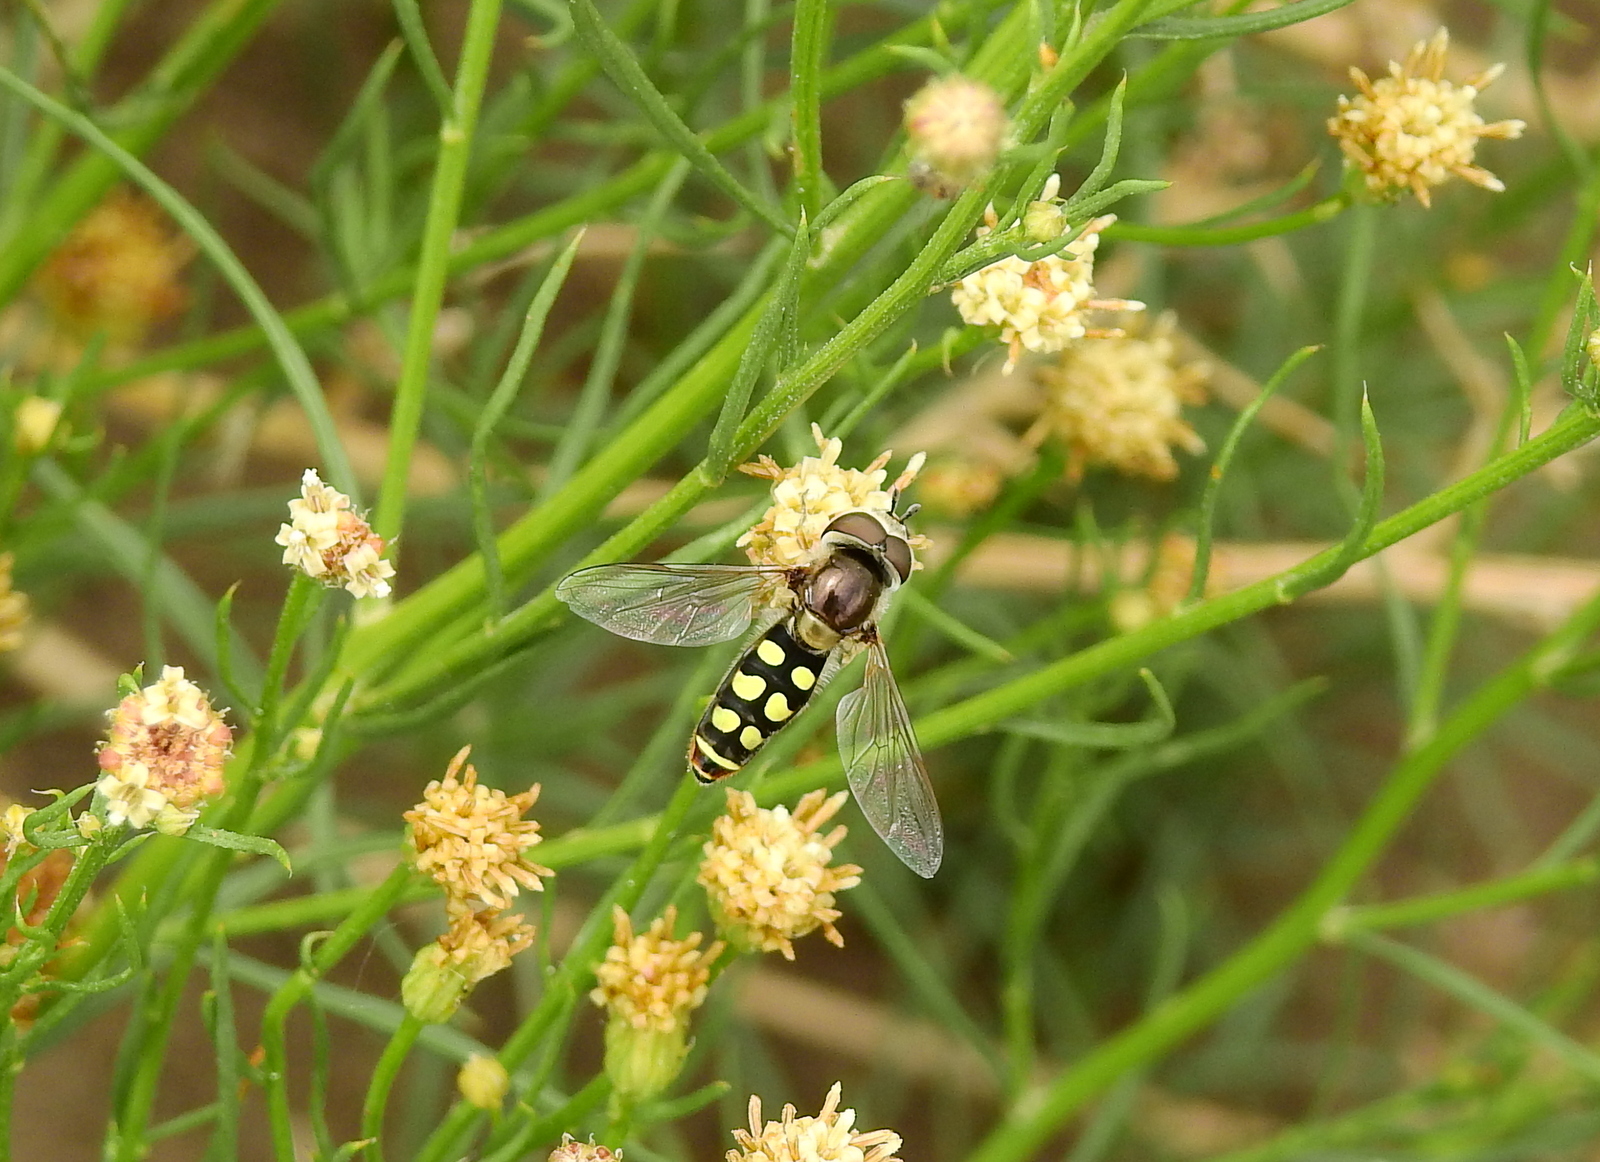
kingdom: Animalia
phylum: Arthropoda
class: Insecta
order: Diptera
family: Syrphidae
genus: Austroscaeva
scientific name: Austroscaeva occidentalis
